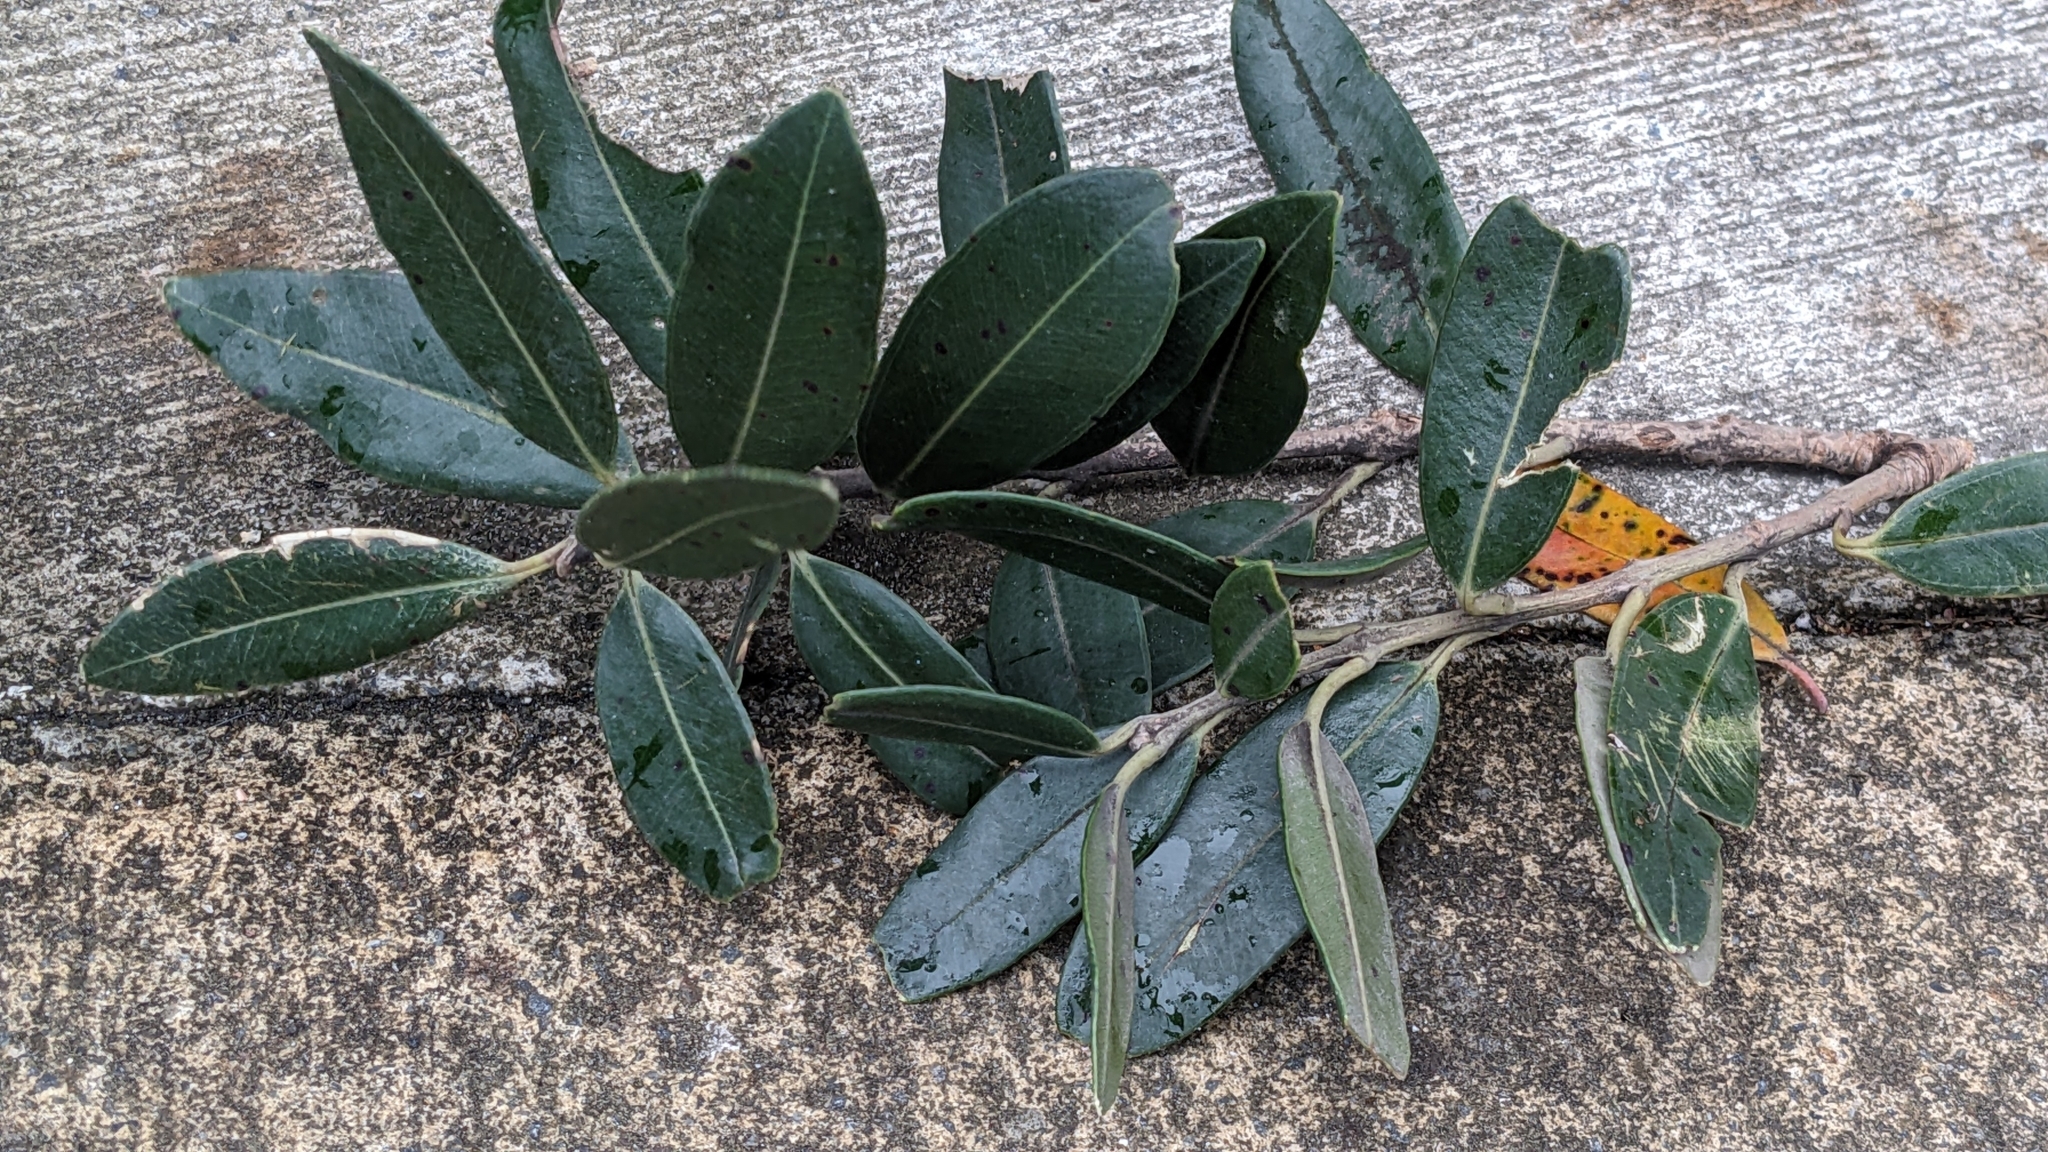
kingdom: Plantae
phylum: Tracheophyta
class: Magnoliopsida
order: Myrtales
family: Myrtaceae
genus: Metrosideros
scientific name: Metrosideros excelsa
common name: New zealand christmastree
